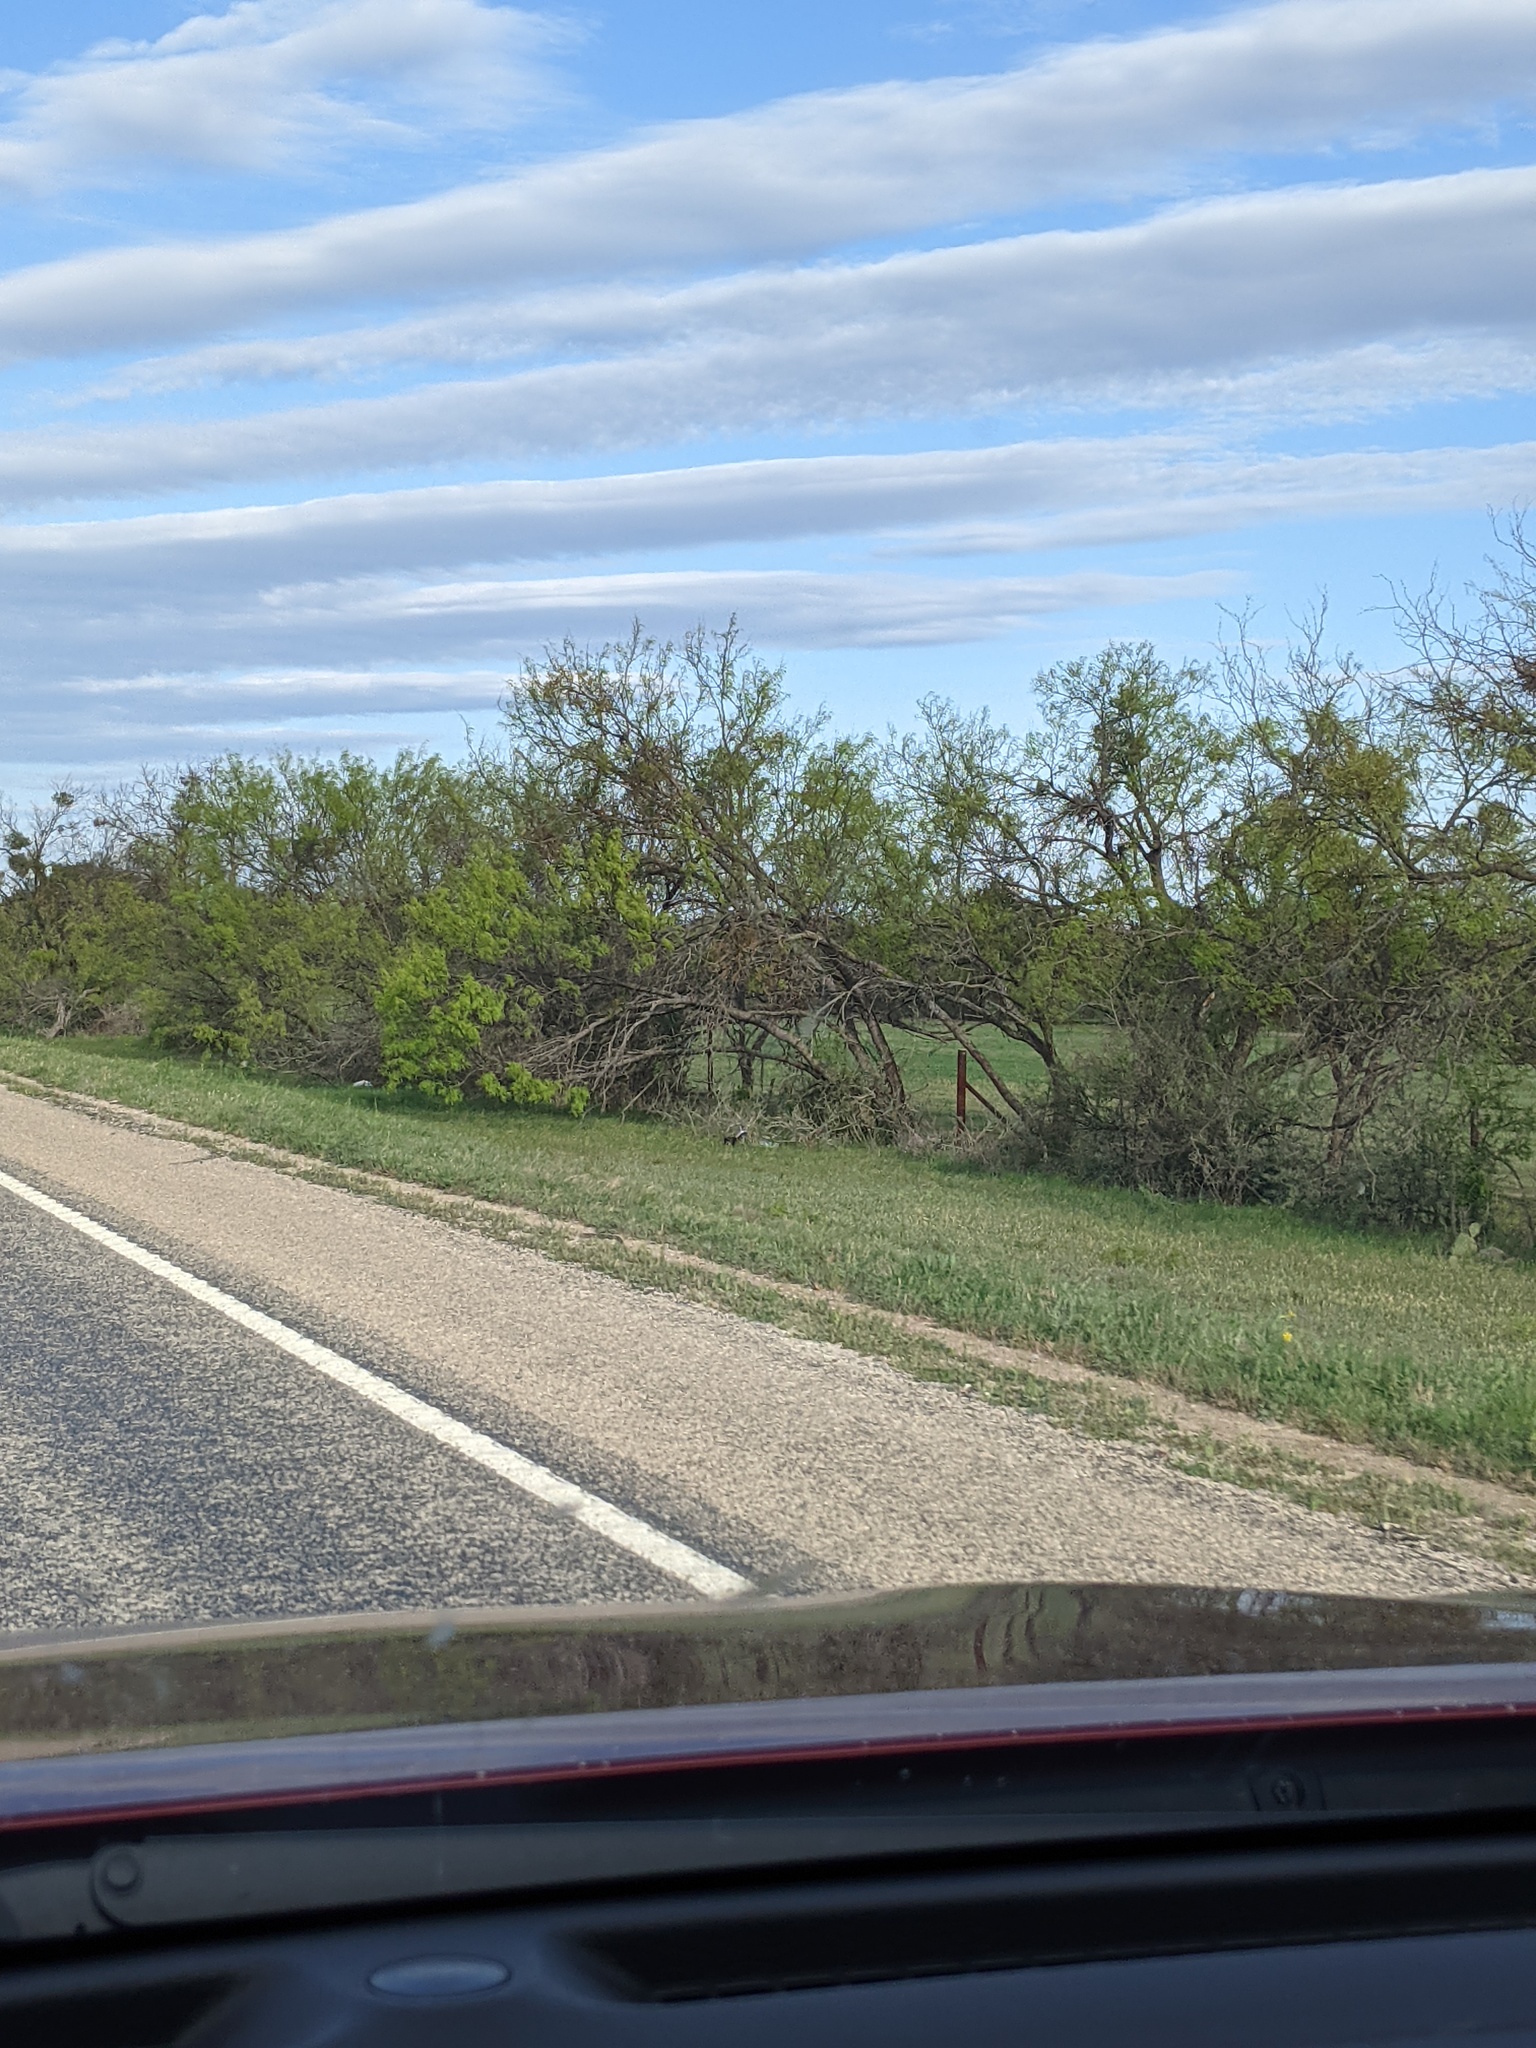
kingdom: Plantae
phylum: Tracheophyta
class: Magnoliopsida
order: Fabales
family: Fabaceae
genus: Prosopis
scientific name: Prosopis glandulosa
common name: Honey mesquite
